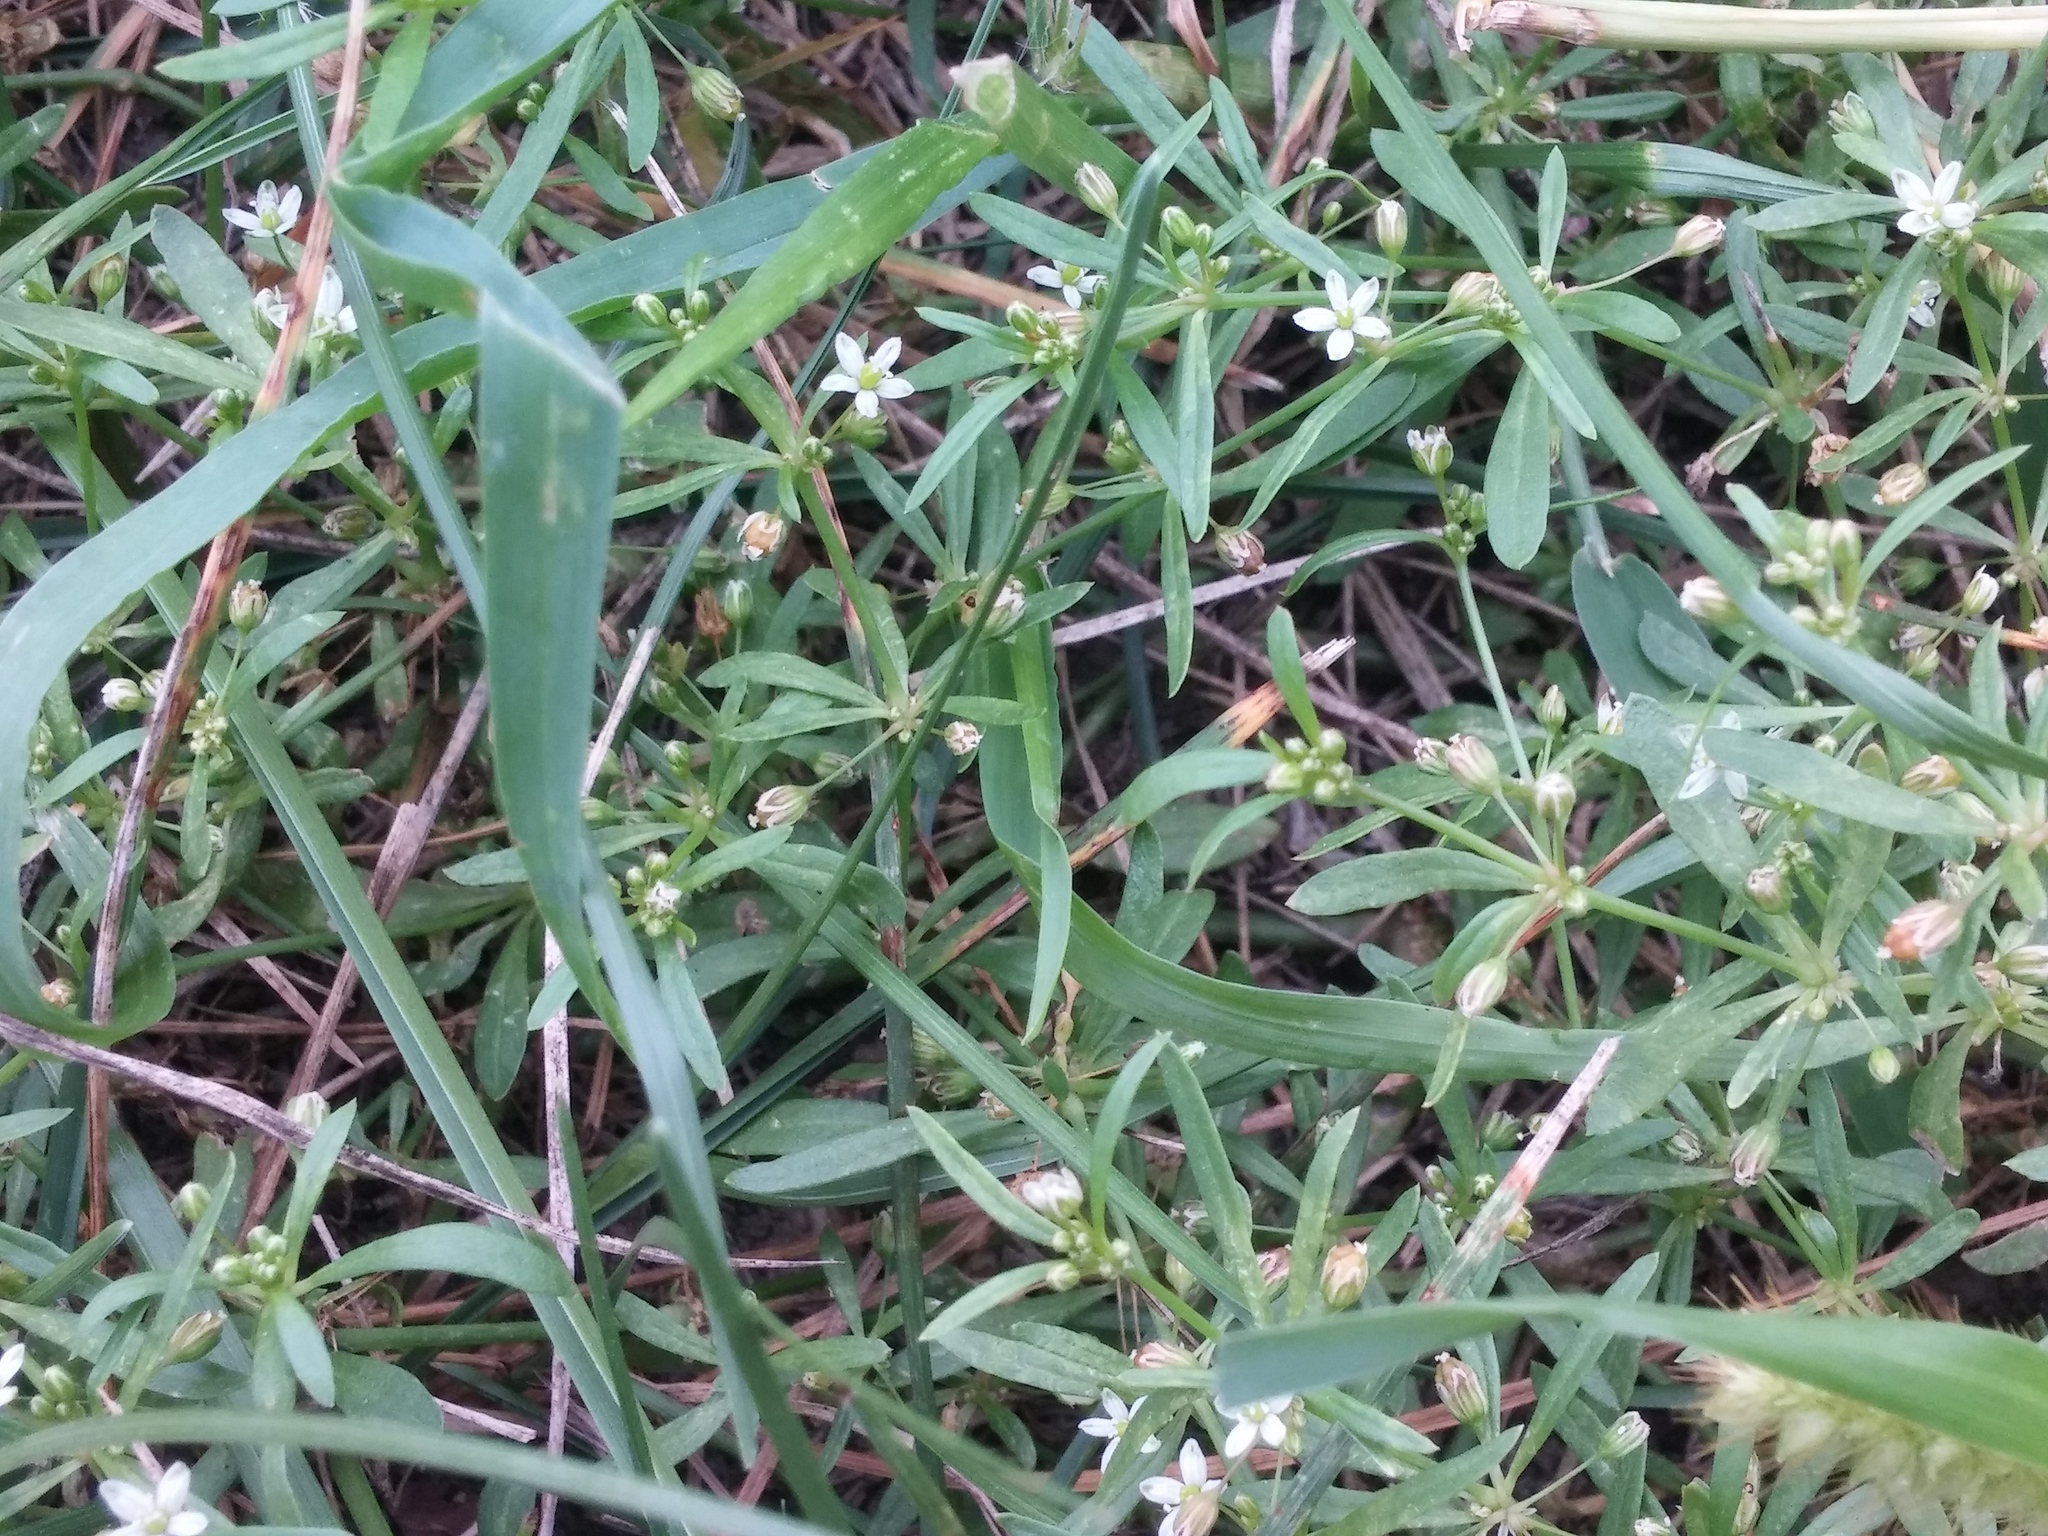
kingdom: Plantae
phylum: Tracheophyta
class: Magnoliopsida
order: Caryophyllales
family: Molluginaceae
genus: Mollugo
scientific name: Mollugo verticillata
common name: Green carpetweed
